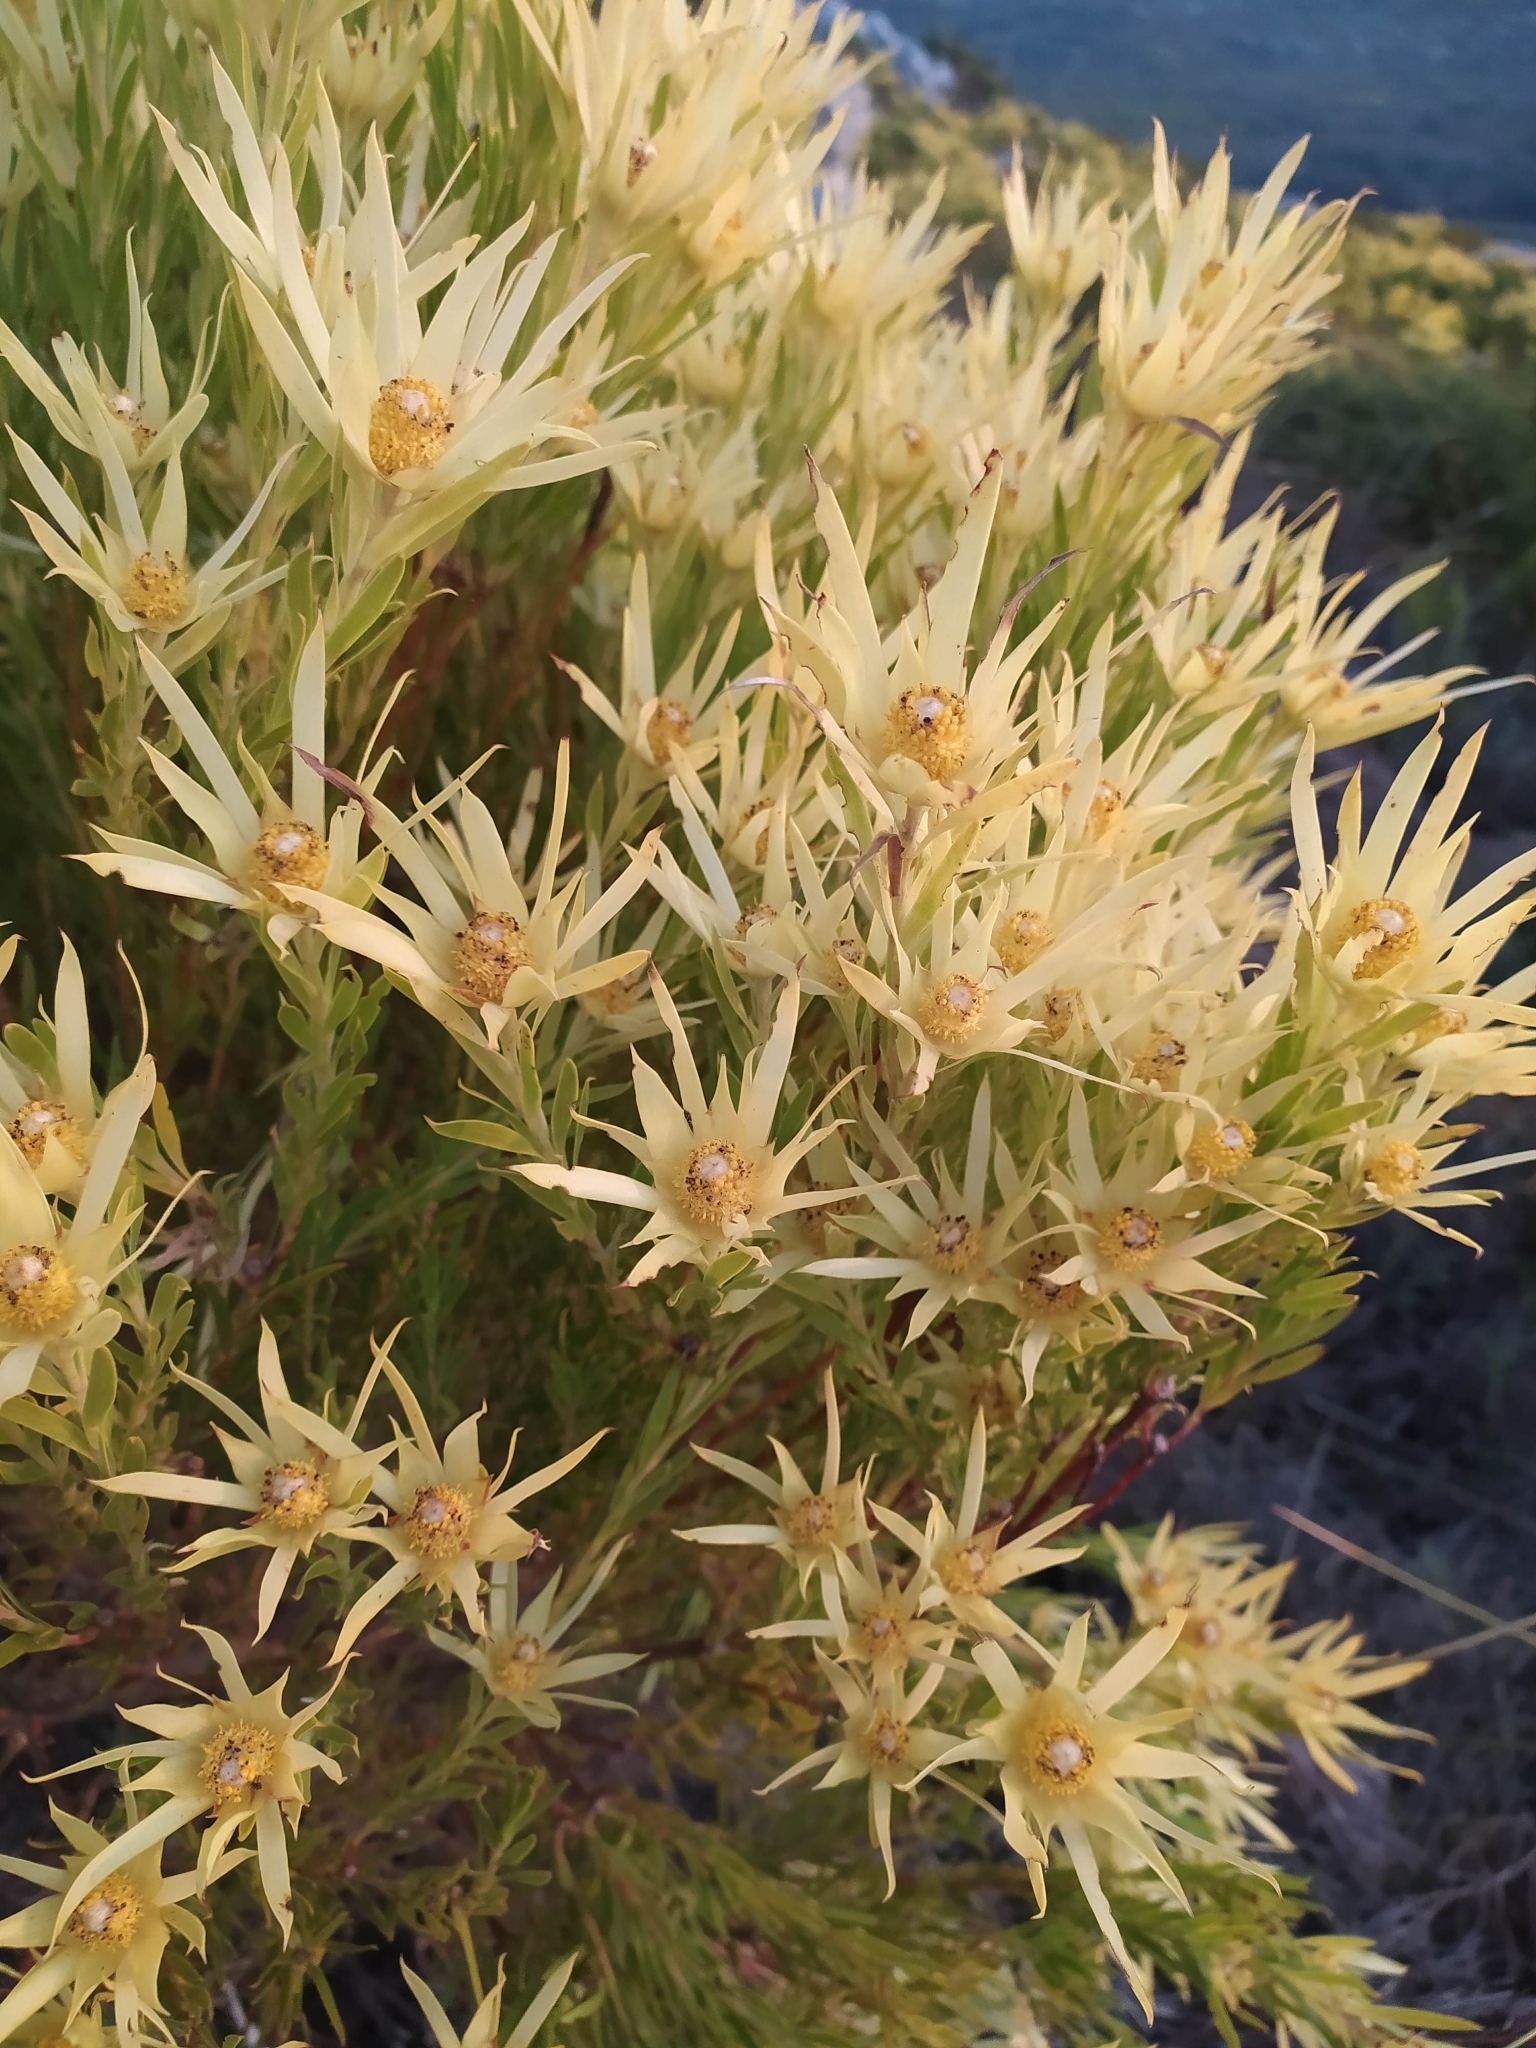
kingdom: Plantae
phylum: Tracheophyta
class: Magnoliopsida
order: Proteales
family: Proteaceae
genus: Leucadendron
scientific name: Leucadendron xanthoconus
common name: Sickle-leaf conebush
